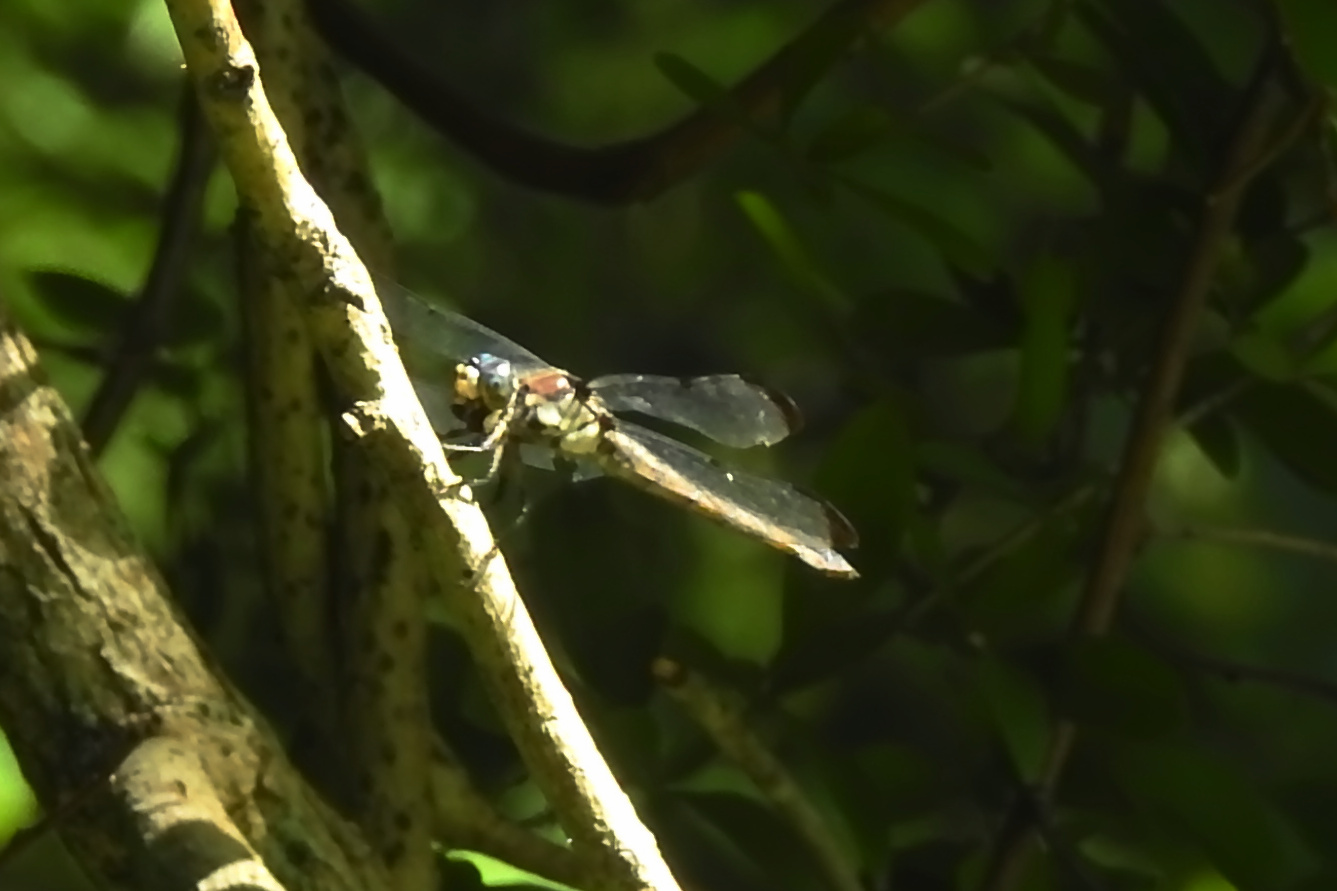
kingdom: Animalia
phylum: Arthropoda
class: Insecta
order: Odonata
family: Libellulidae
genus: Libellula
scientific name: Libellula vibrans
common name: Great blue skimmer
